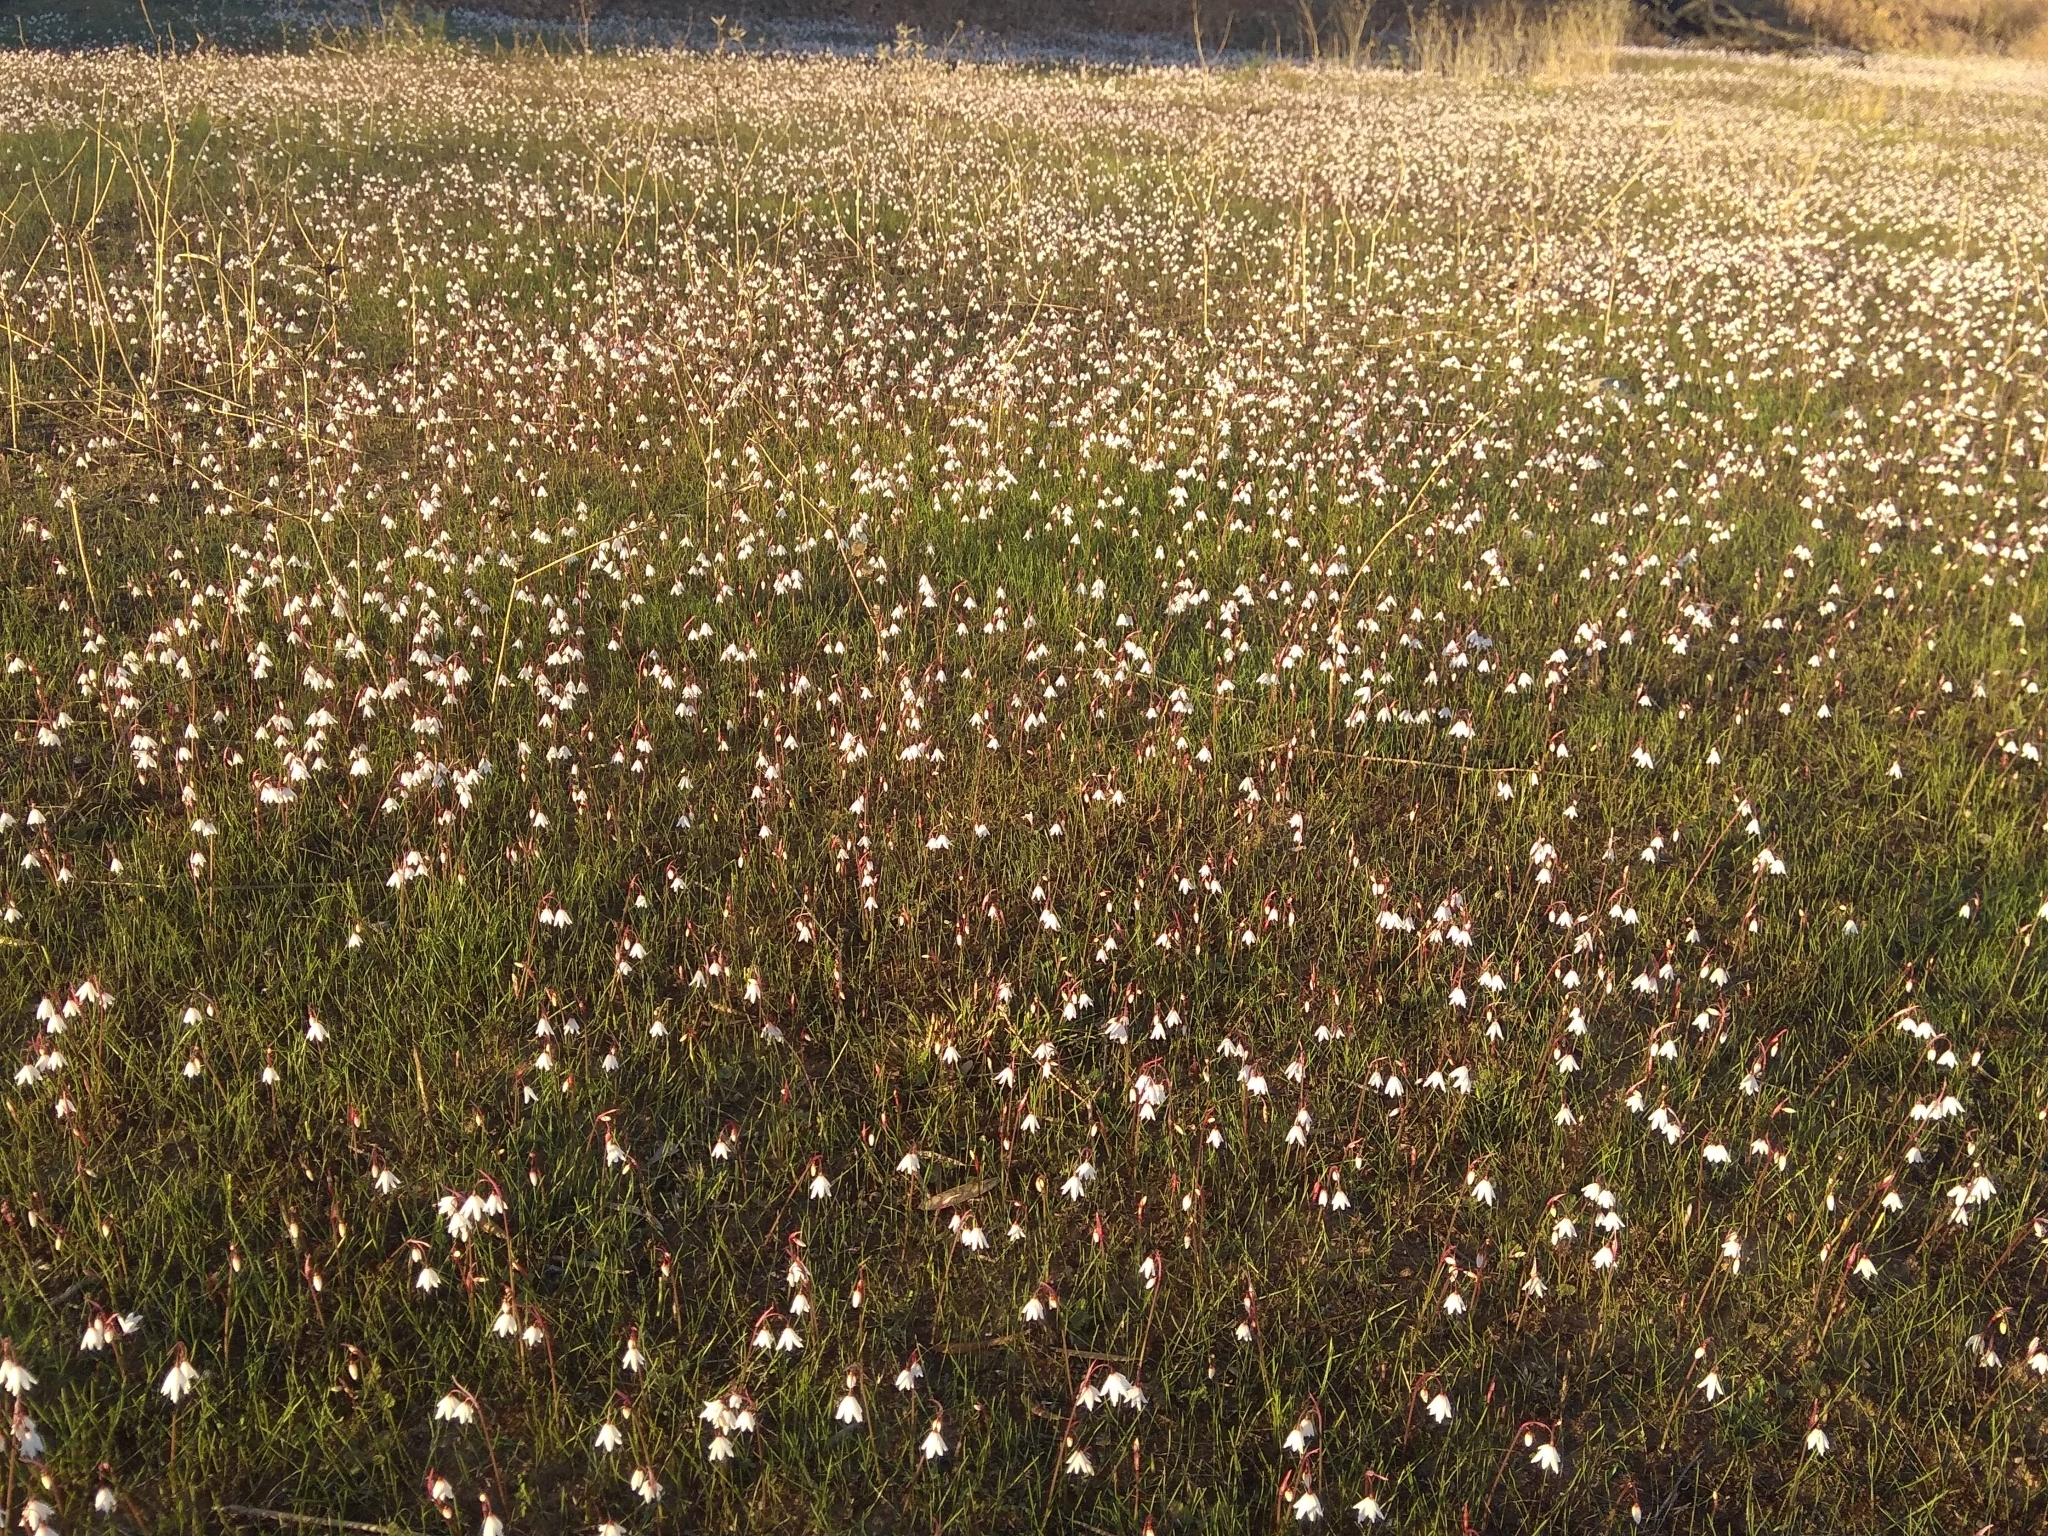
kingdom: Plantae
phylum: Tracheophyta
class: Liliopsida
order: Asparagales
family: Amaryllidaceae
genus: Acis
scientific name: Acis autumnalis
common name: Autumn snowflake
